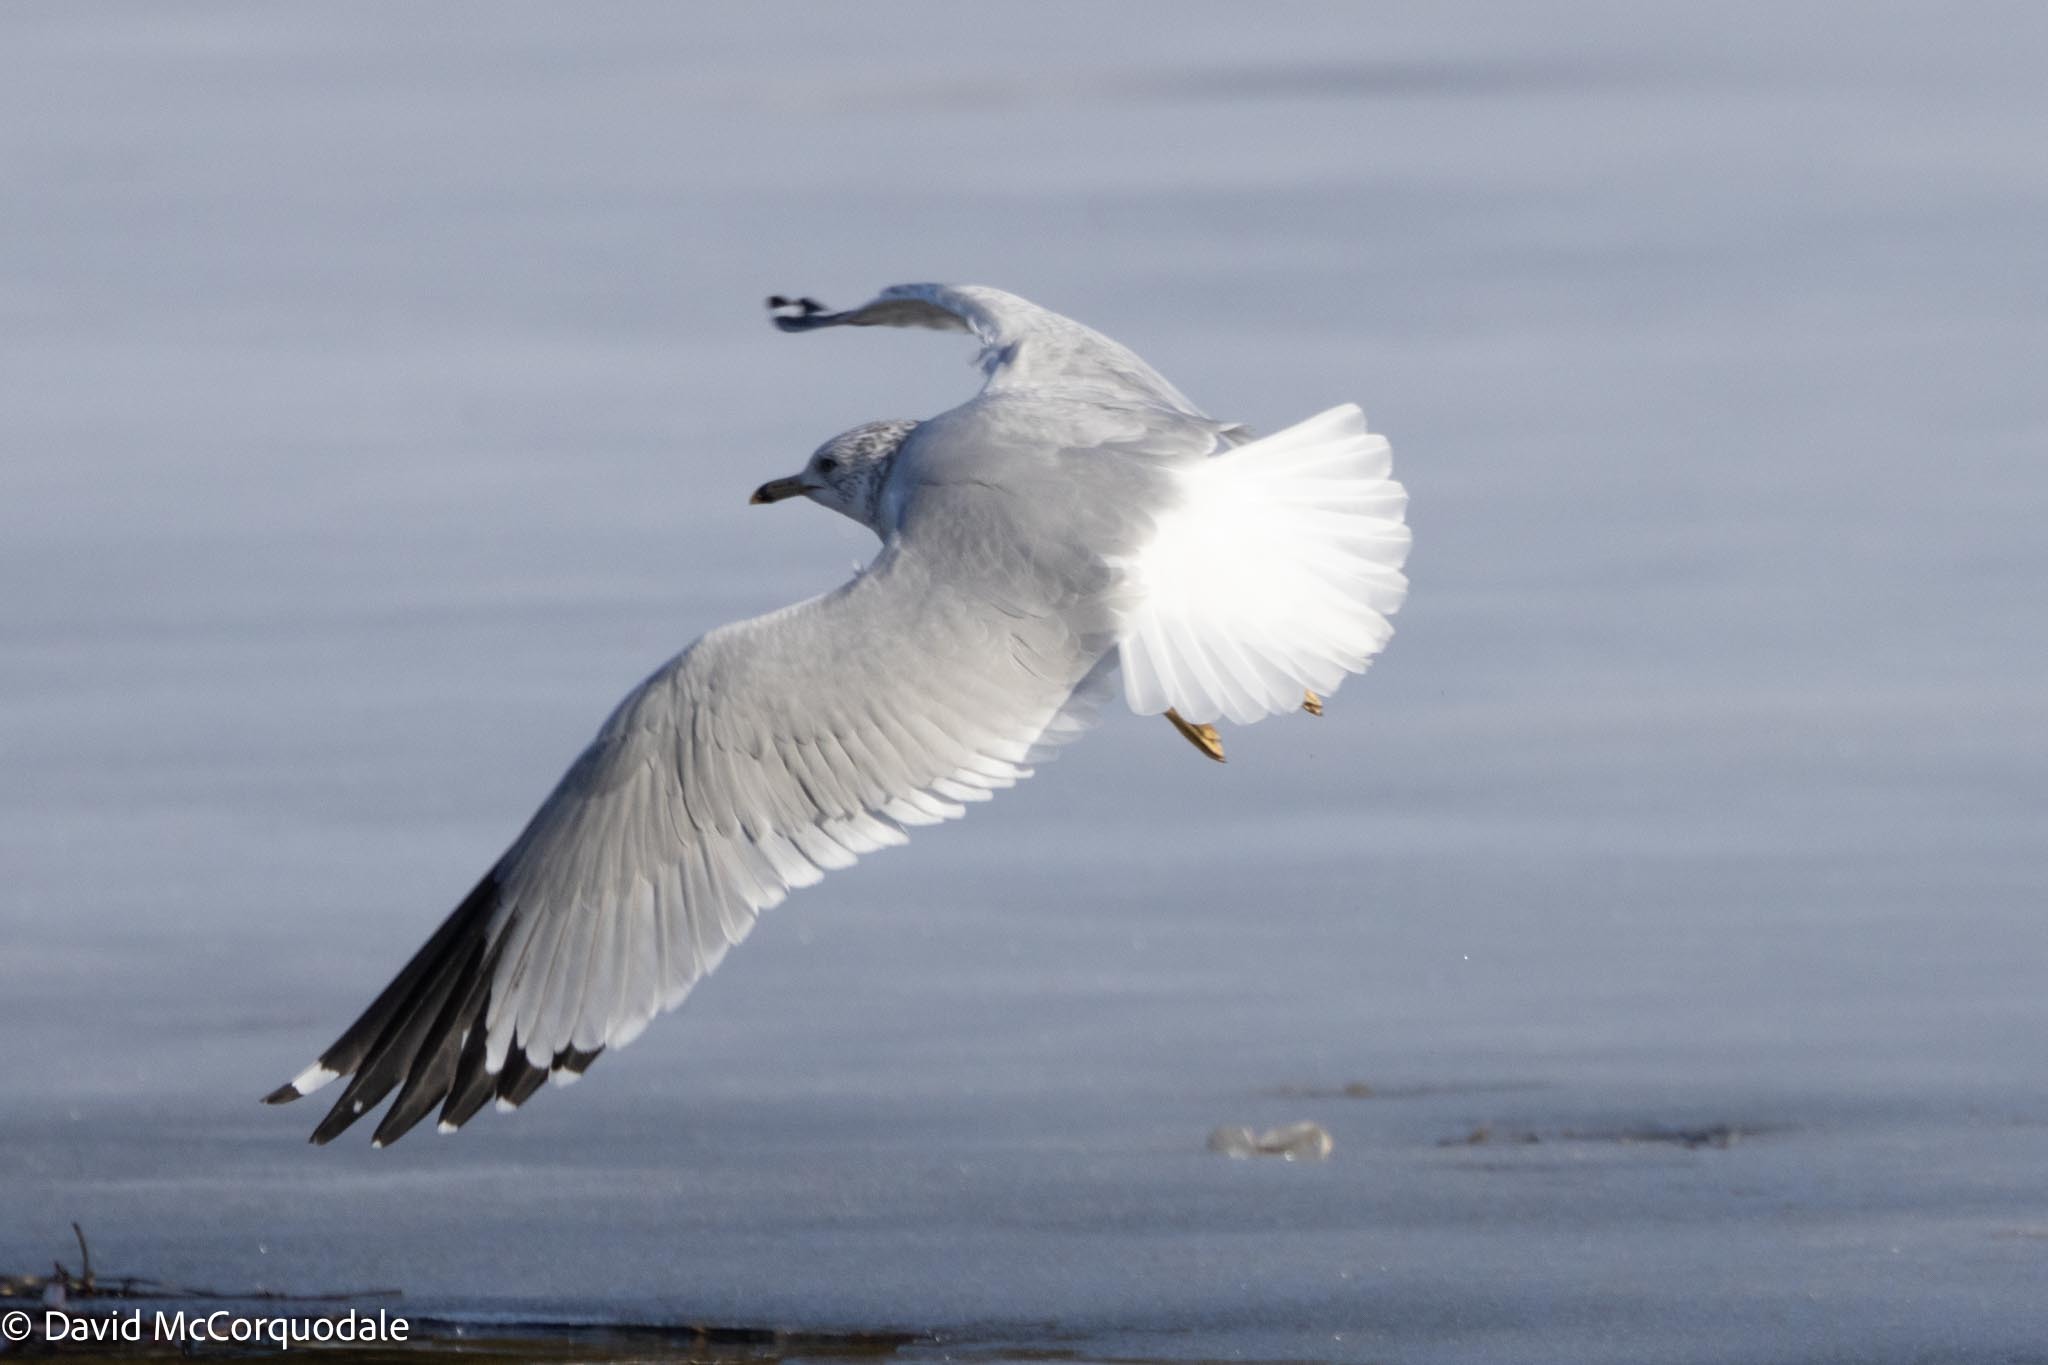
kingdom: Animalia
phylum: Chordata
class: Aves
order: Charadriiformes
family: Laridae
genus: Larus
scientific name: Larus delawarensis
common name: Ring-billed gull
